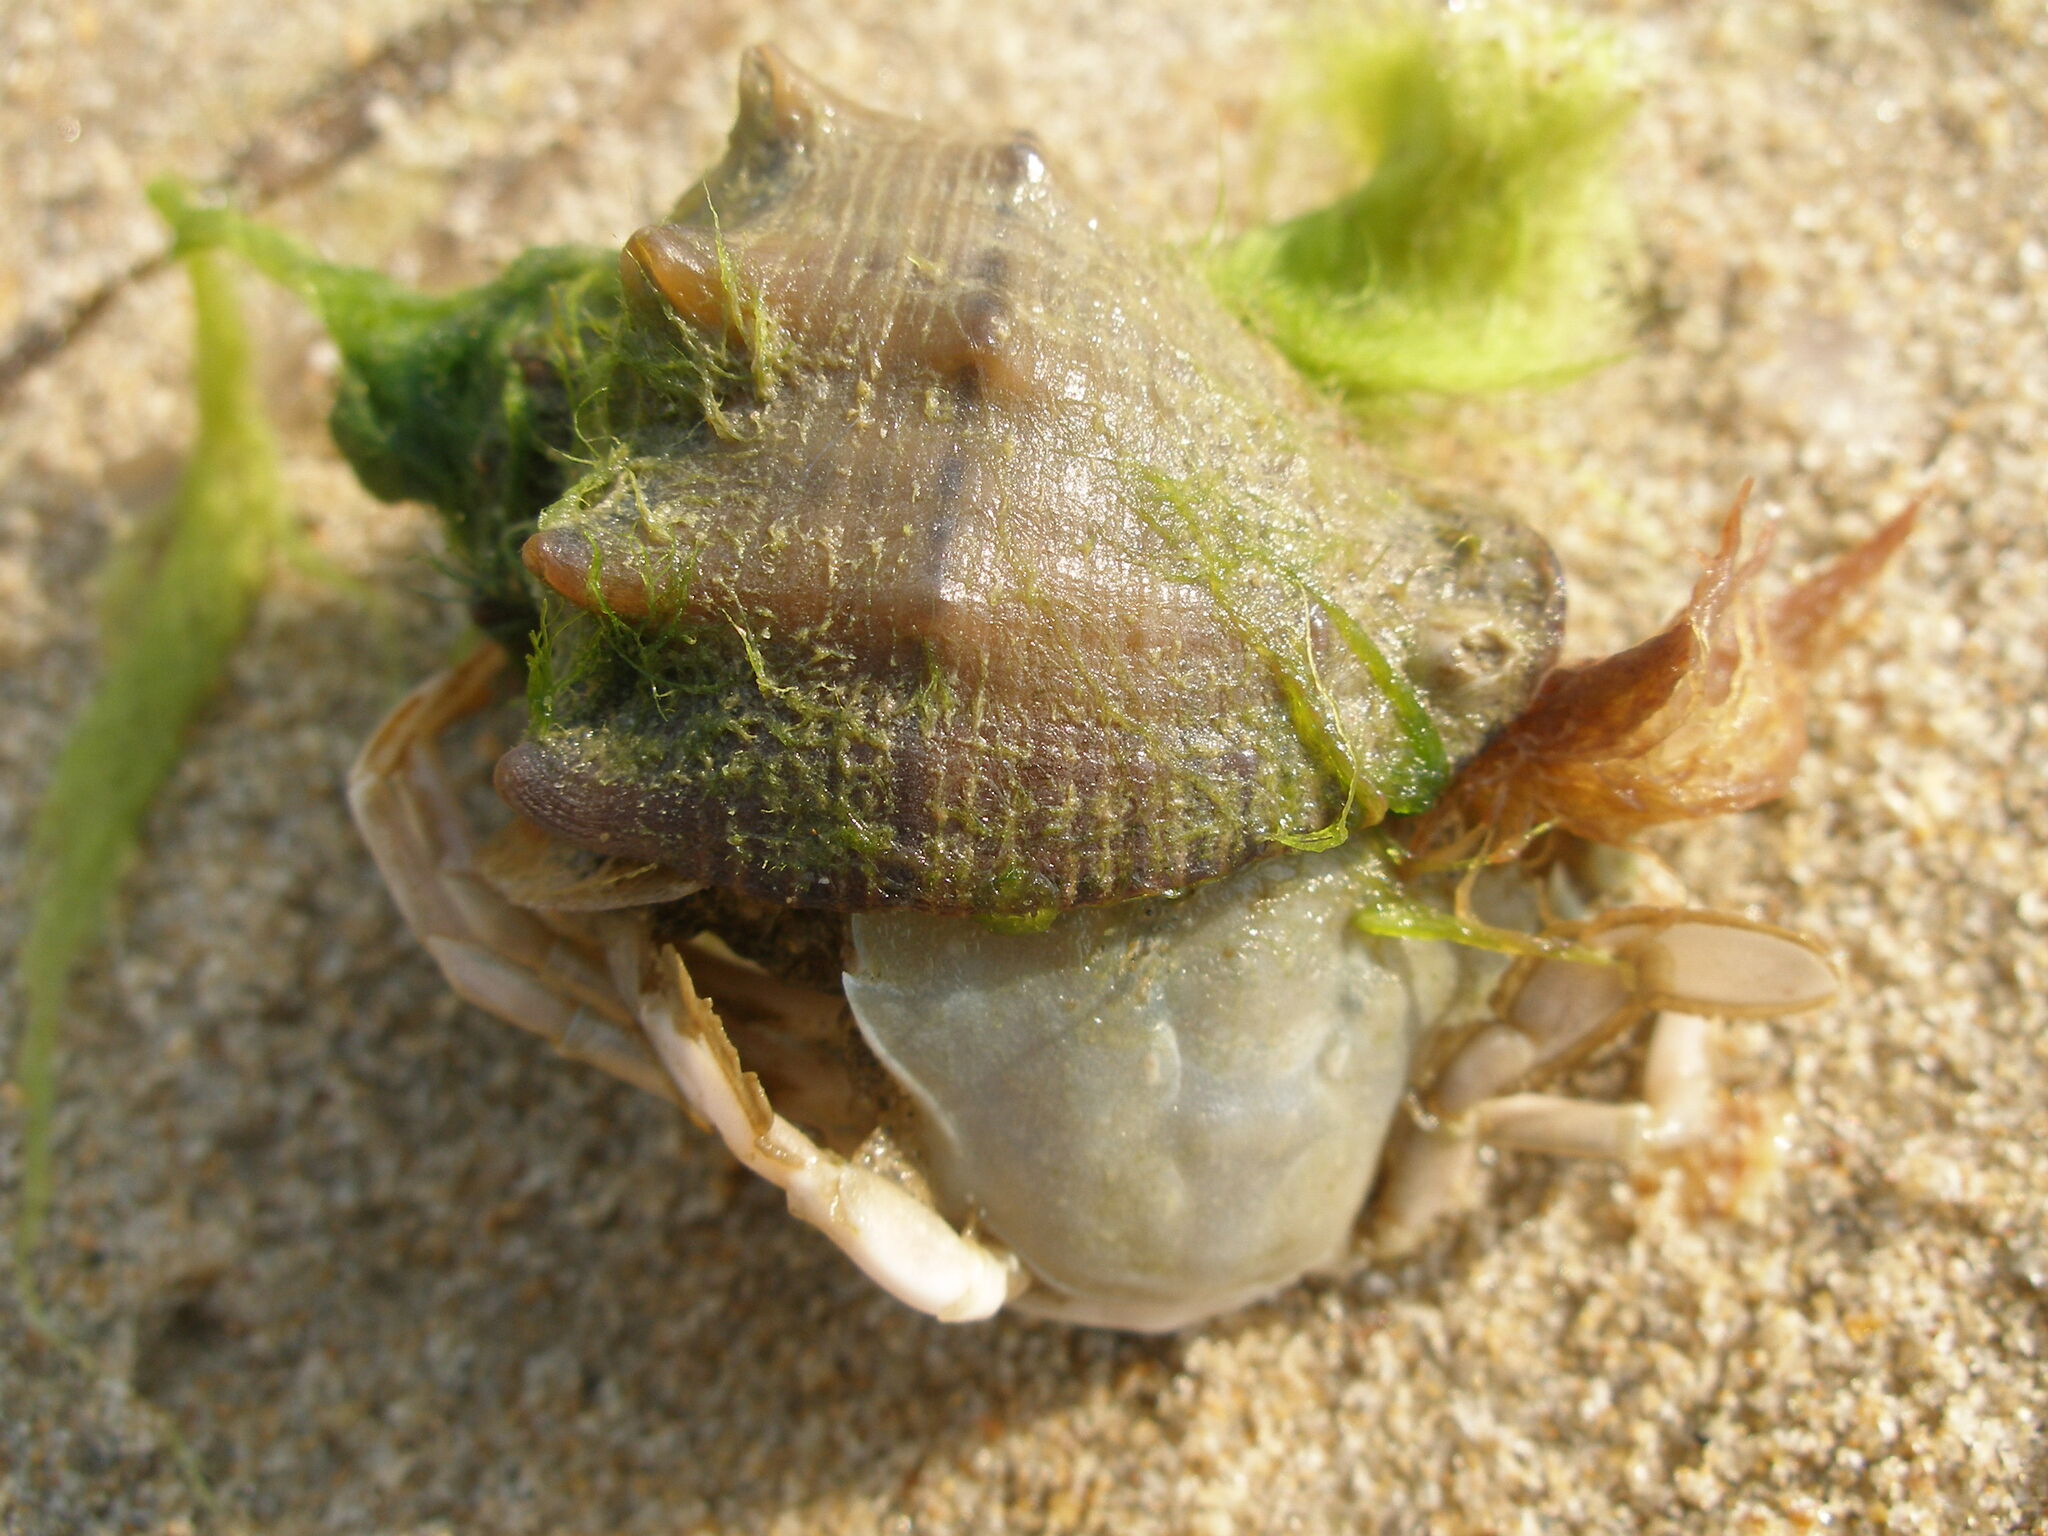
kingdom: Animalia
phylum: Mollusca
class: Gastropoda
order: Neogastropoda
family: Muricidae
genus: Rapana
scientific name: Rapana venosa
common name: Veined rapa whelk
